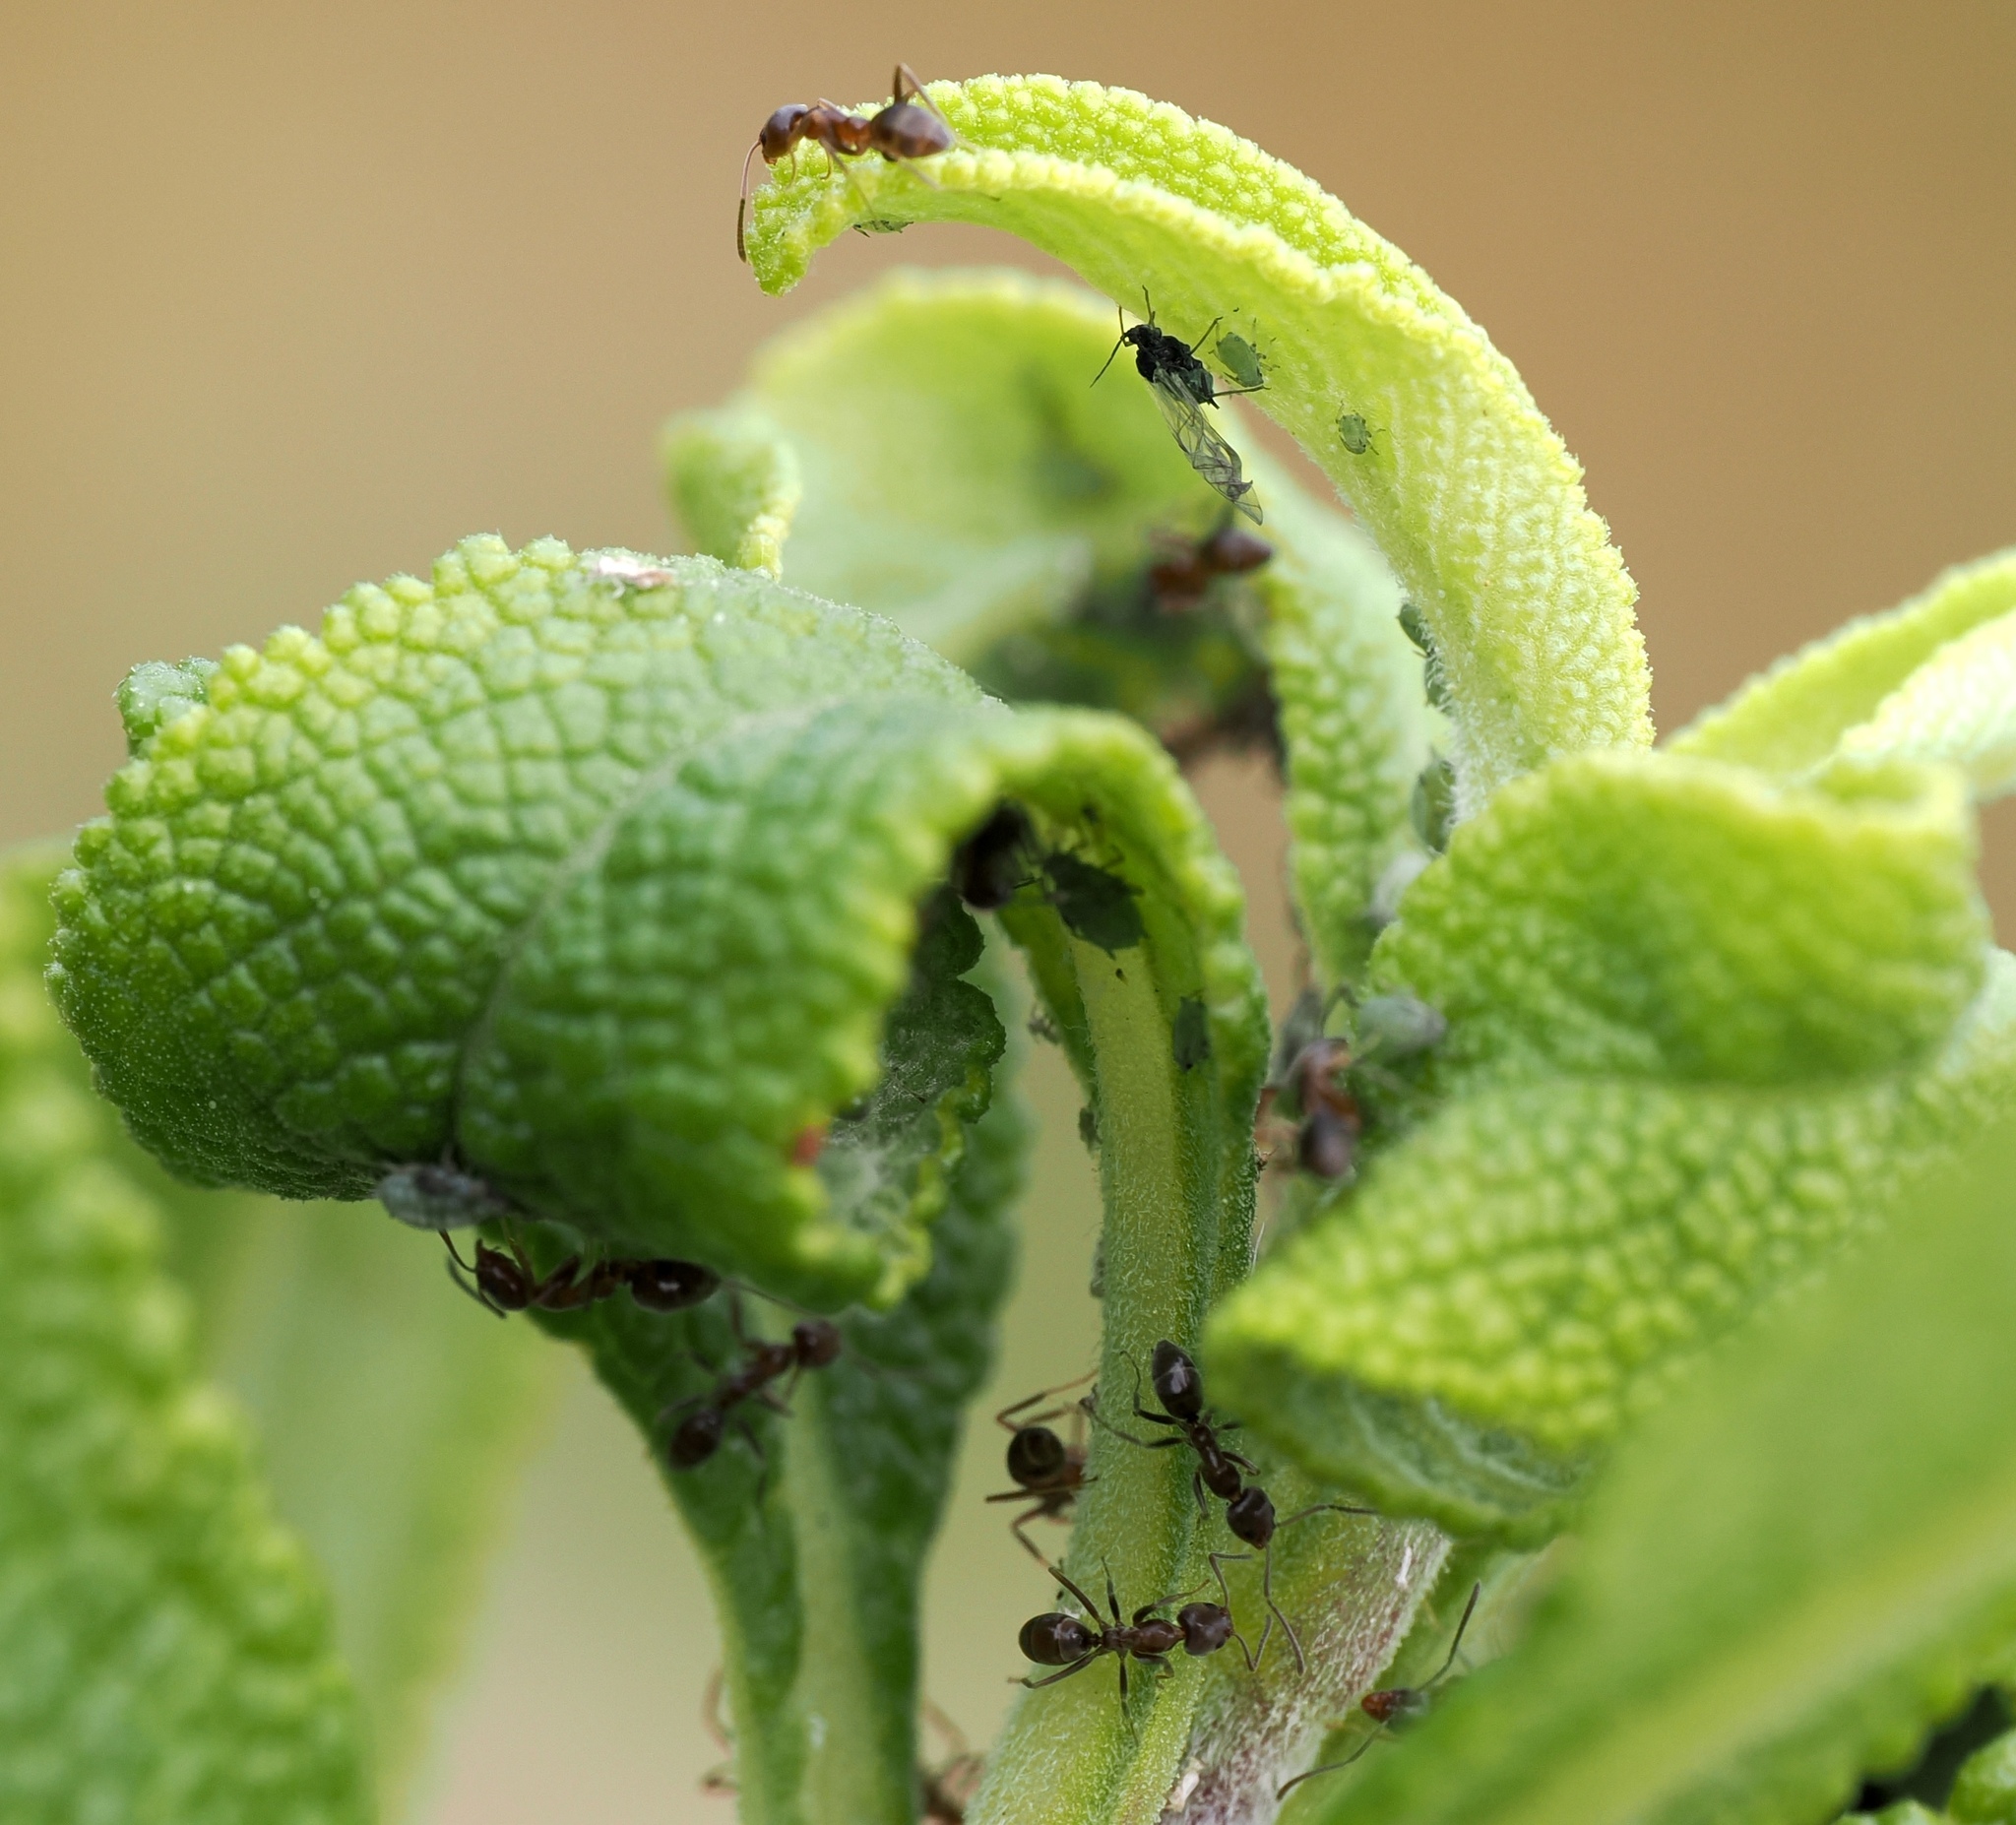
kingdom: Animalia
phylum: Arthropoda
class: Insecta
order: Hymenoptera
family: Formicidae
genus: Linepithema
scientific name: Linepithema humile
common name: Argentine ant
